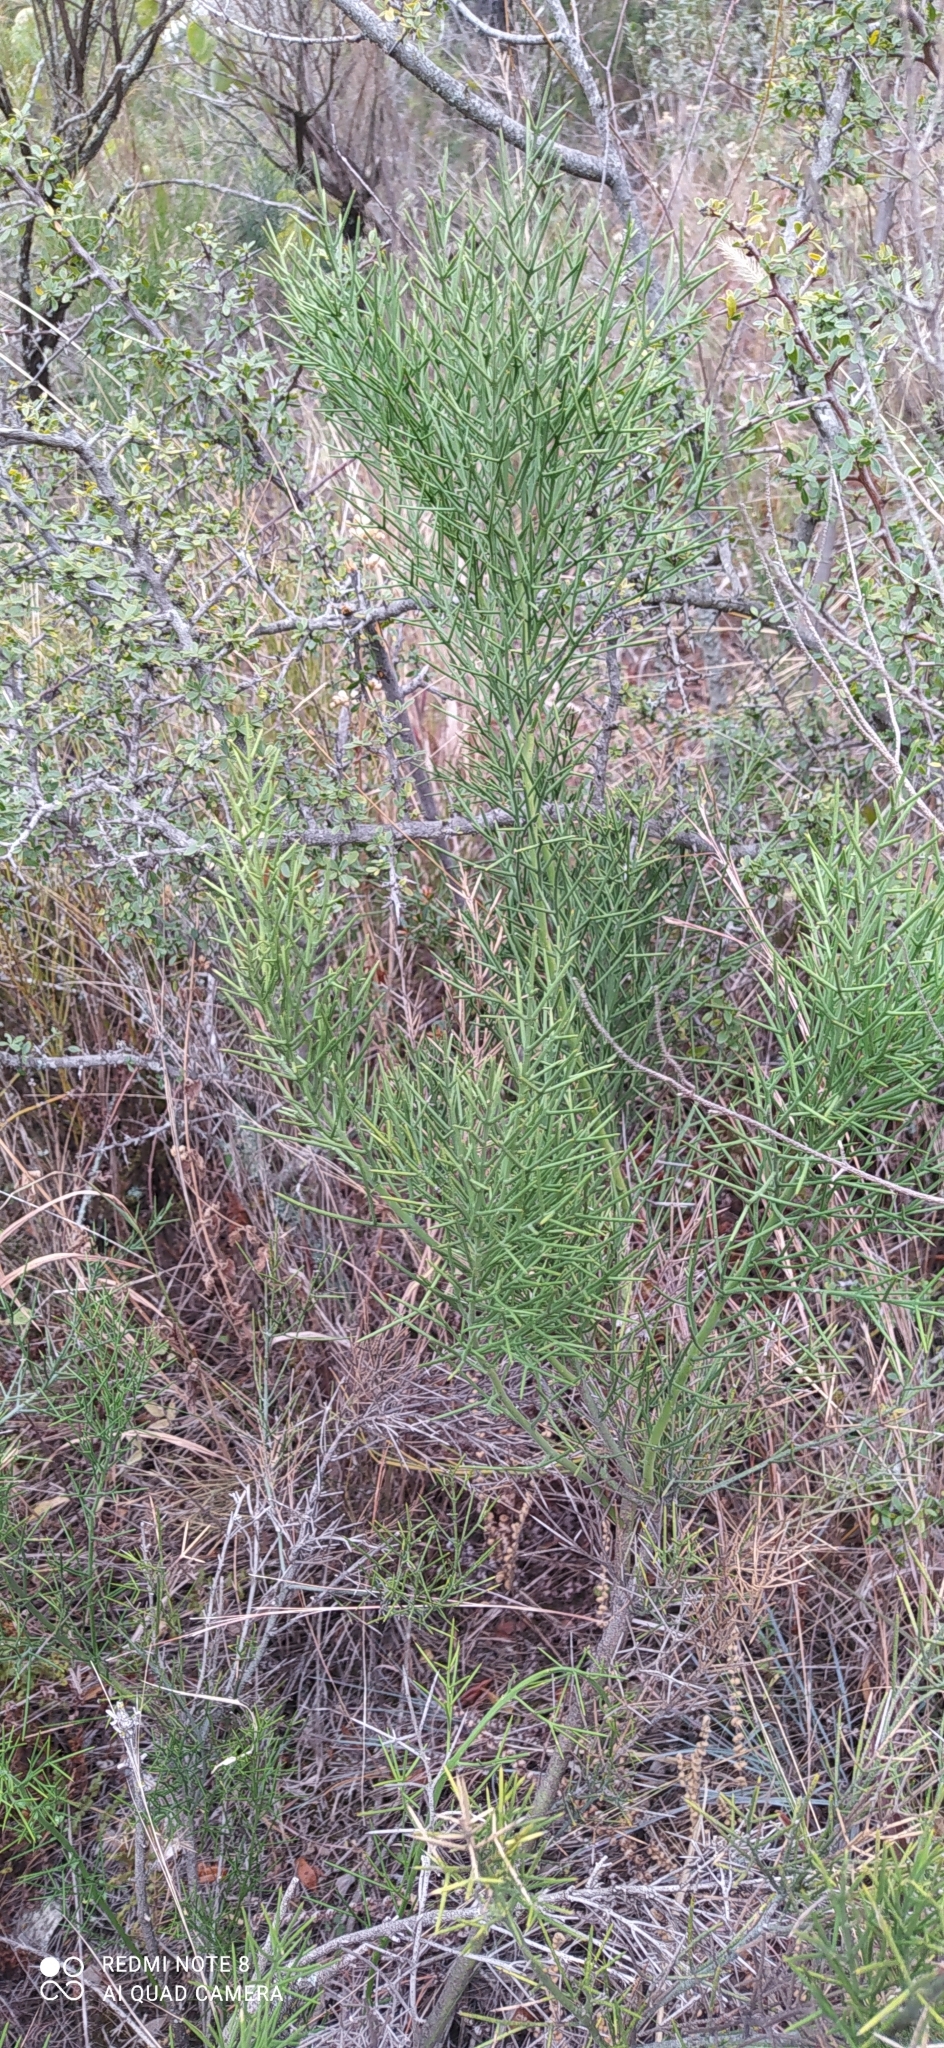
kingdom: Plantae
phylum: Tracheophyta
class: Magnoliopsida
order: Rosales
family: Rhamnaceae
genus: Colletia
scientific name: Colletia spinosissima
